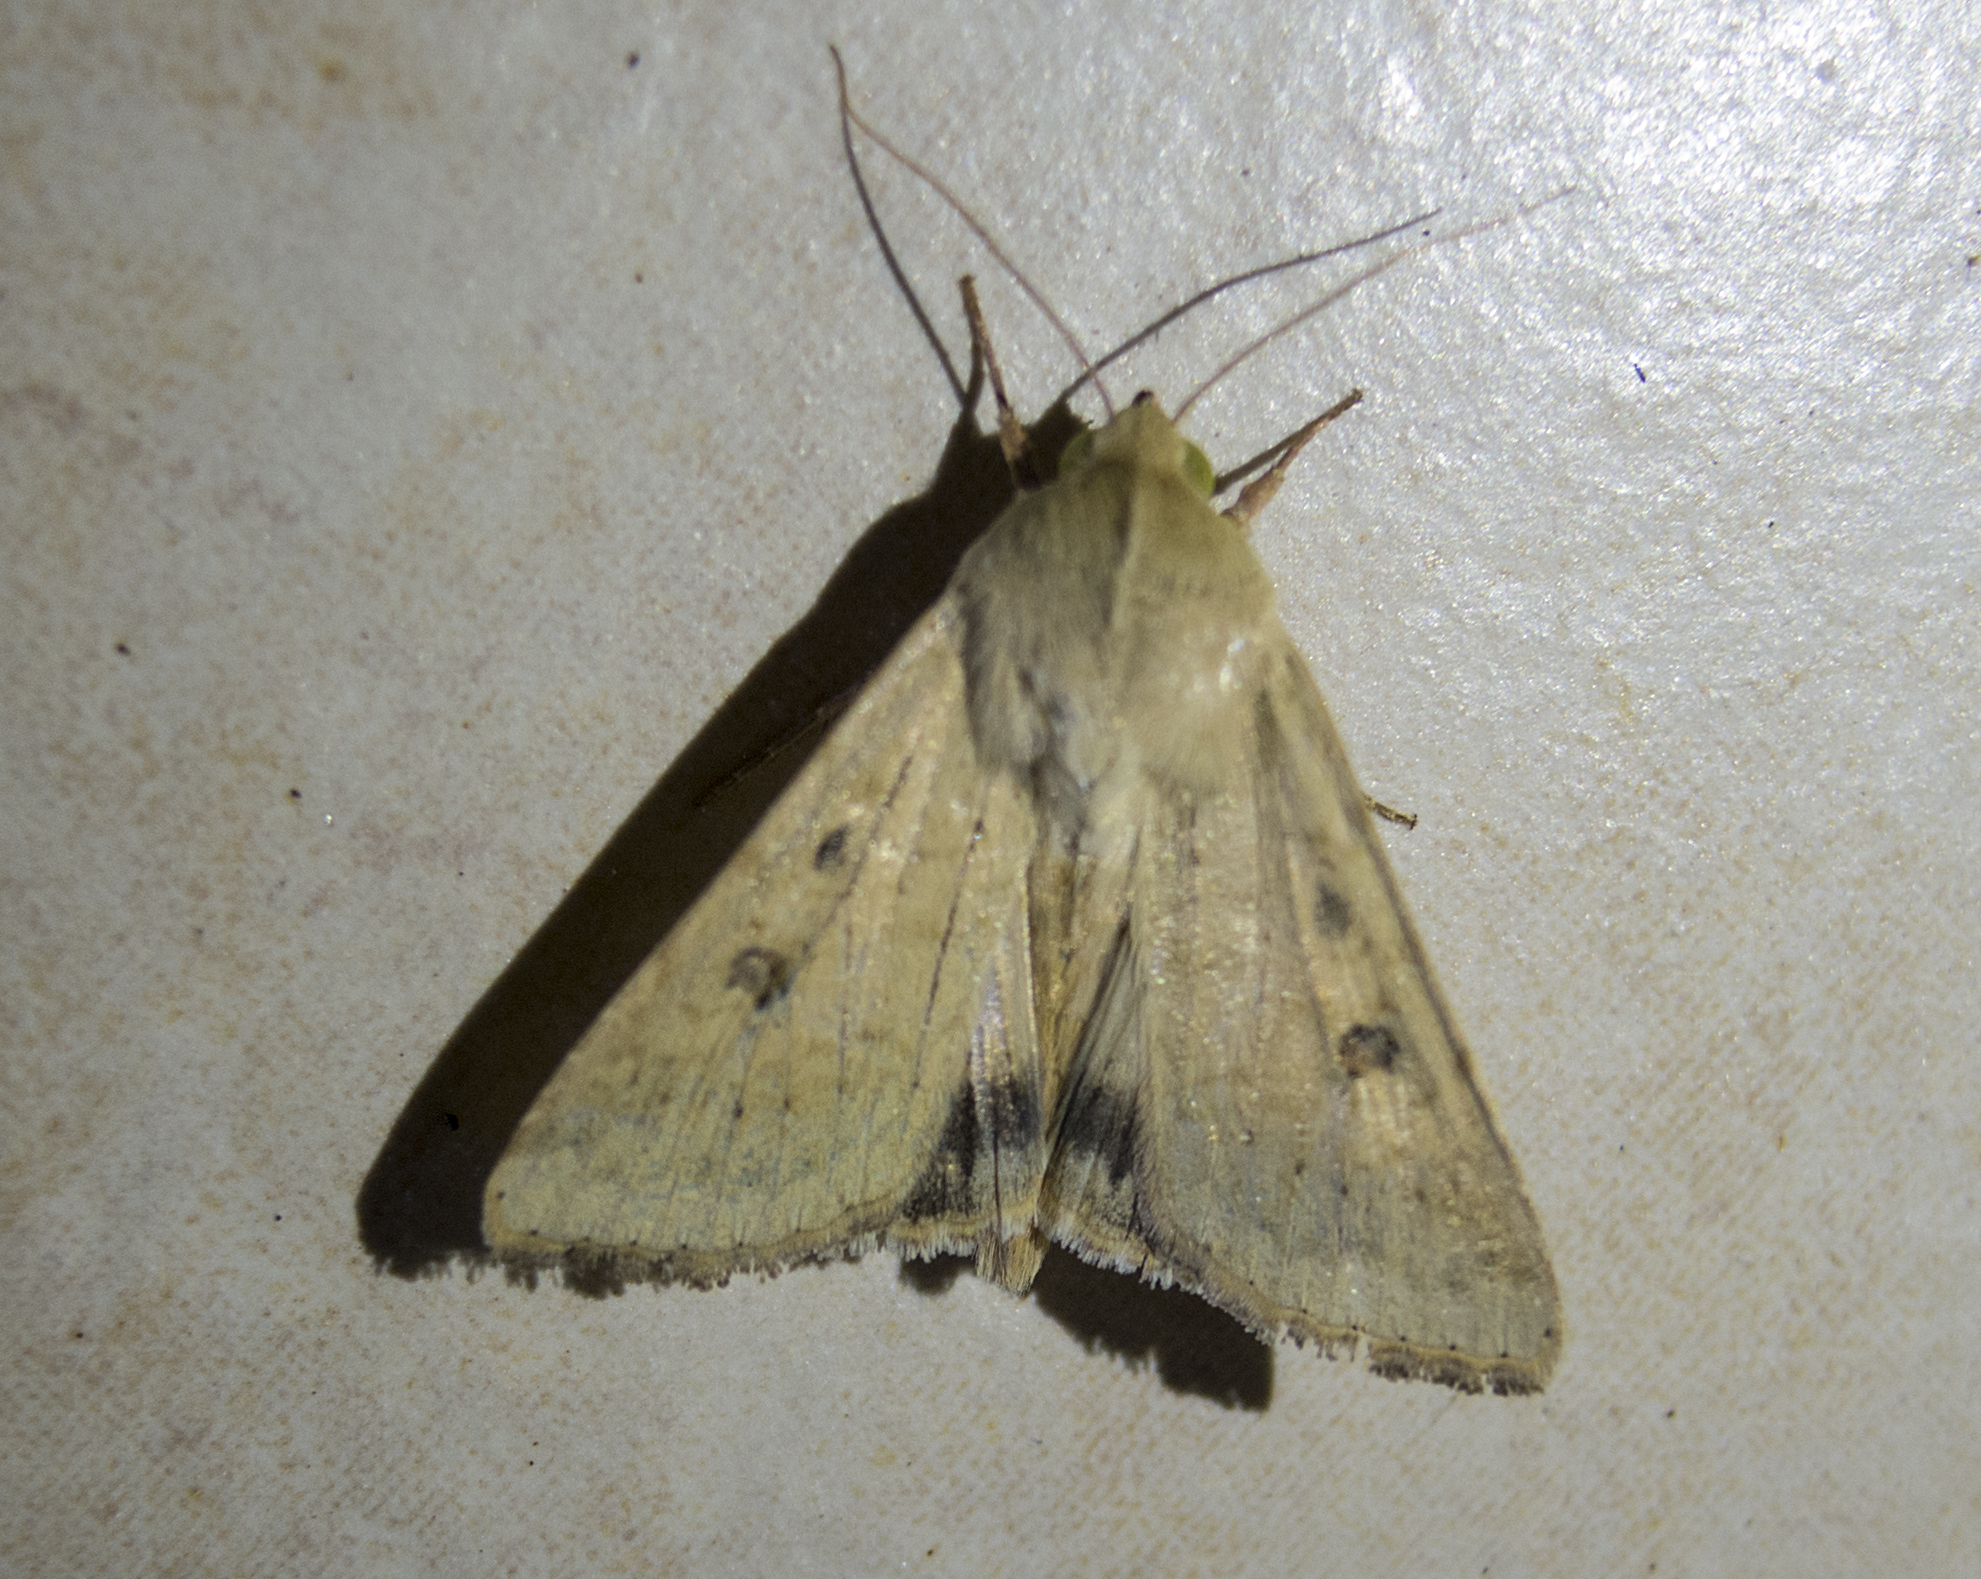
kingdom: Animalia
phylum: Arthropoda
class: Insecta
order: Lepidoptera
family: Noctuidae
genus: Helicoverpa
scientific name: Helicoverpa armigera
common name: Cotton bollworm
